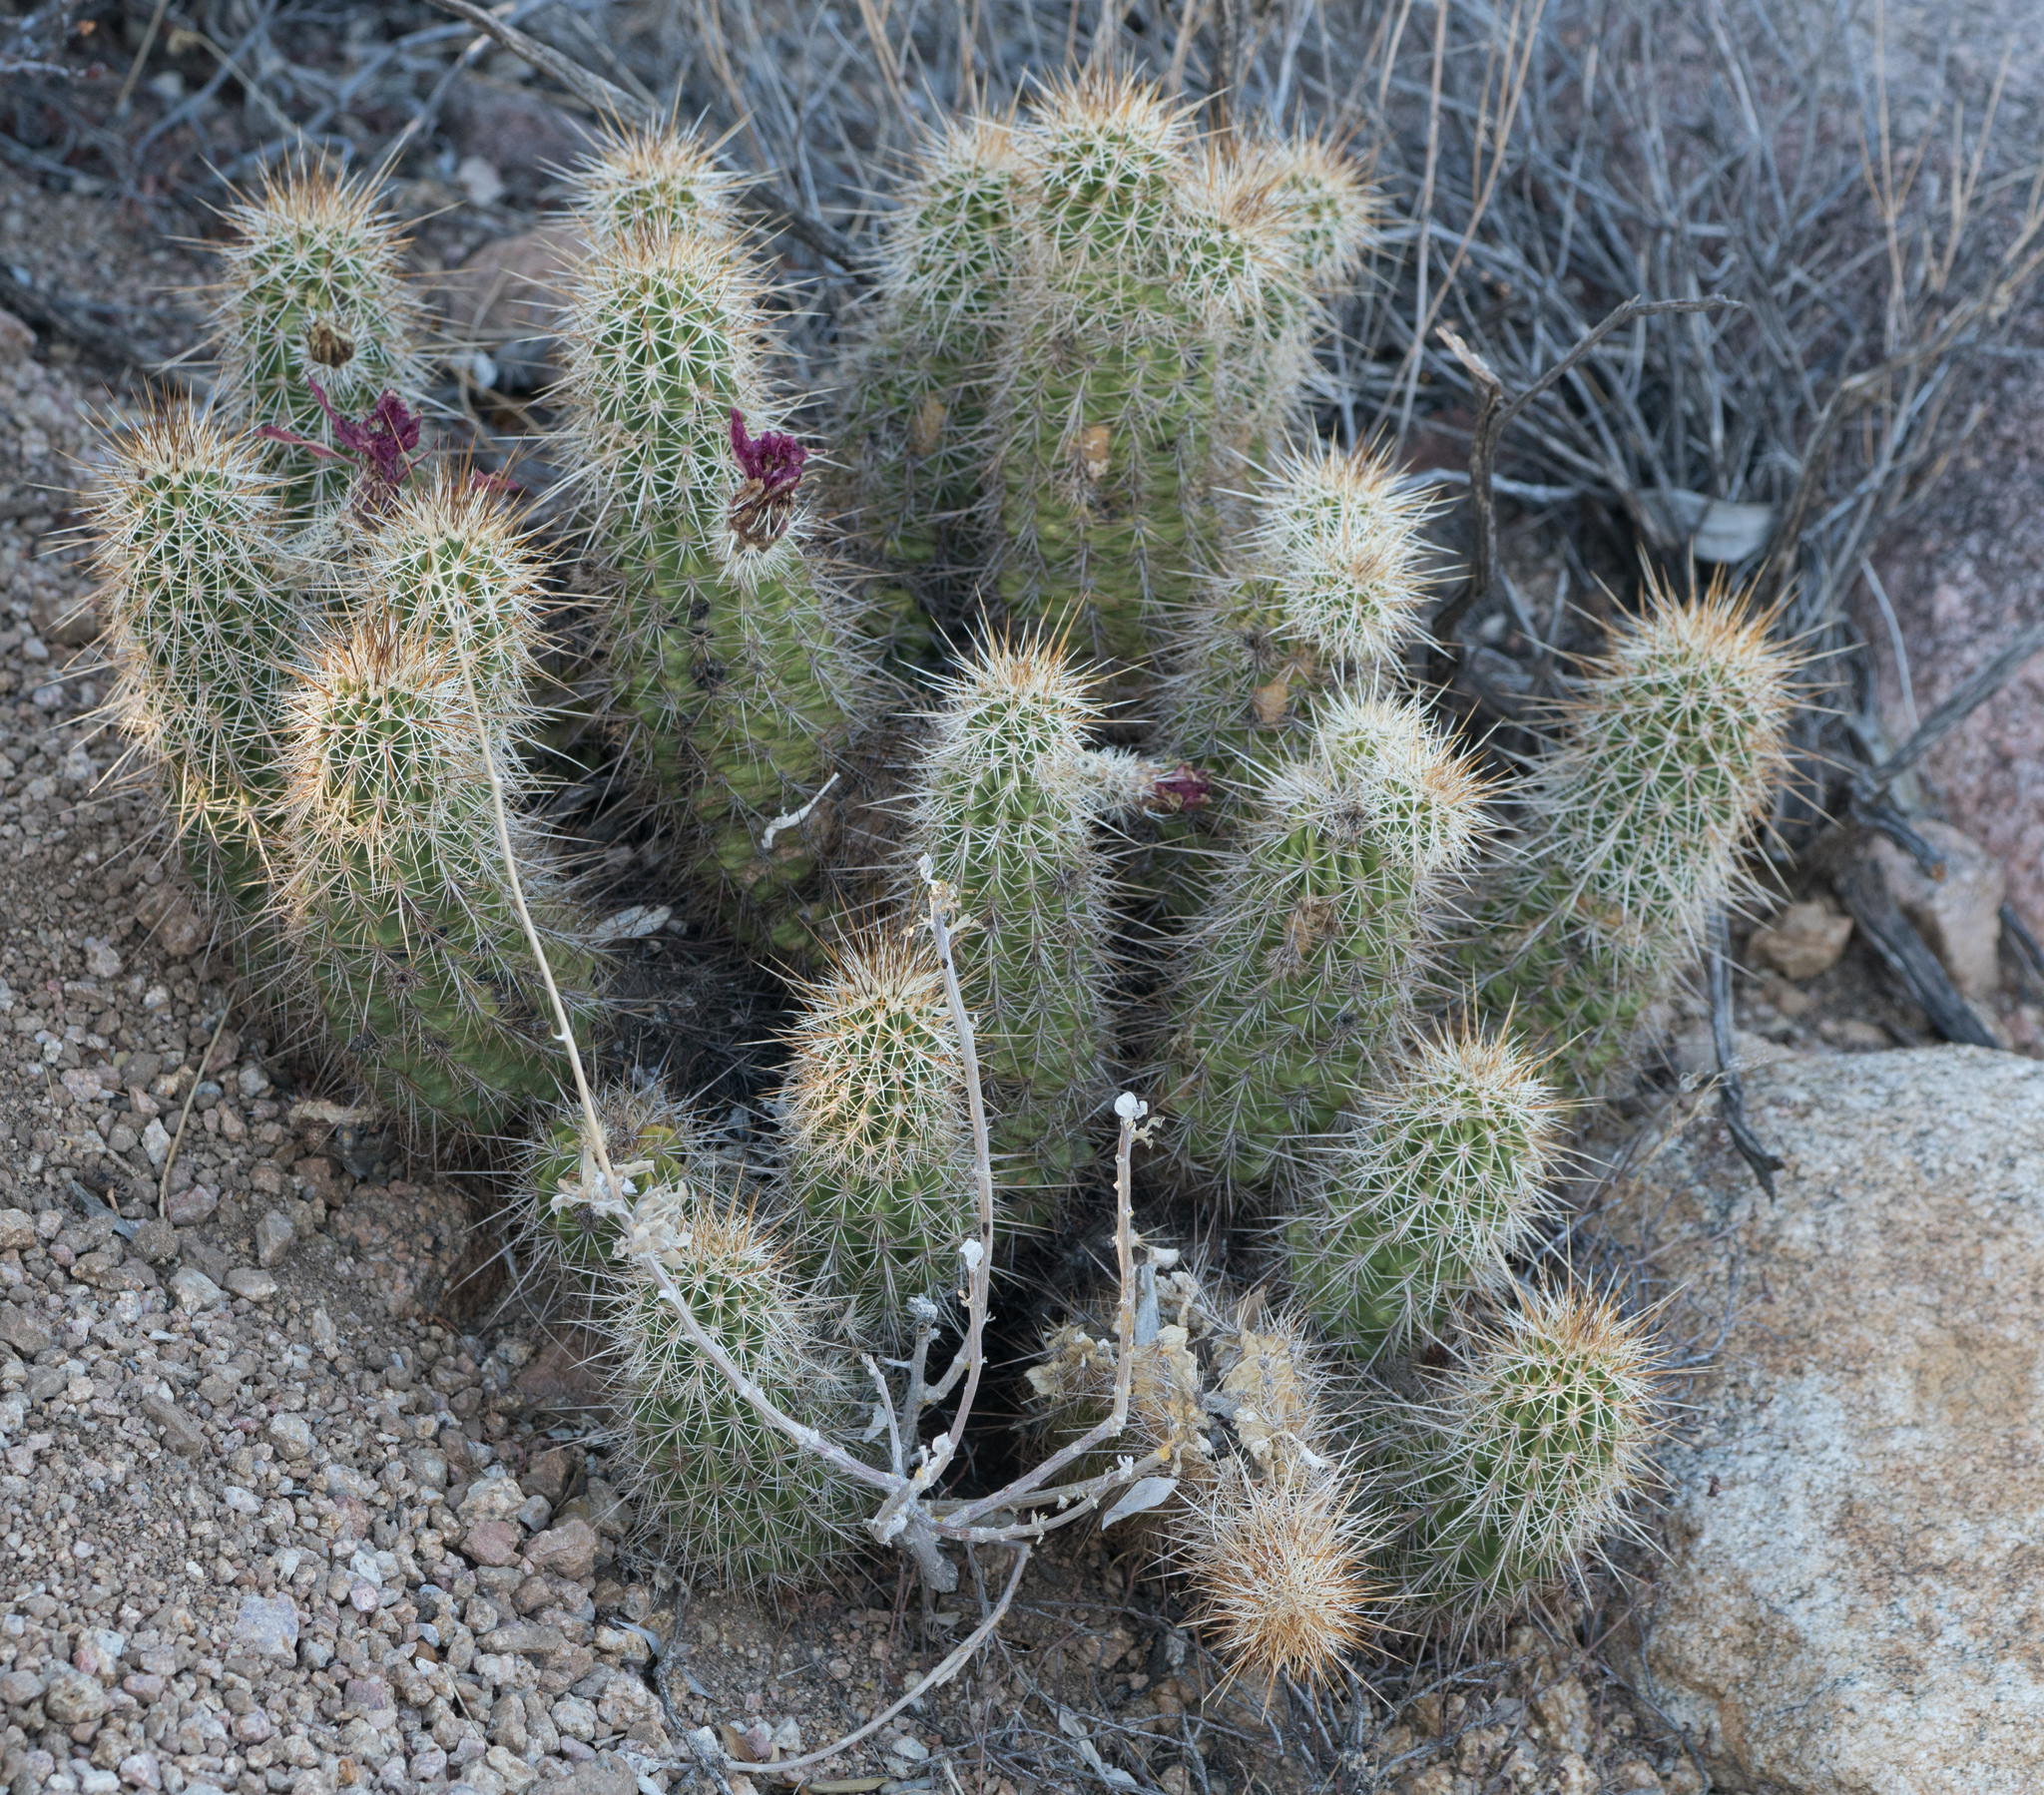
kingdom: Plantae
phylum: Tracheophyta
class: Magnoliopsida
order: Caryophyllales
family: Cactaceae
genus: Echinocereus
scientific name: Echinocereus fasciculatus
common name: Bundle hedgehog
